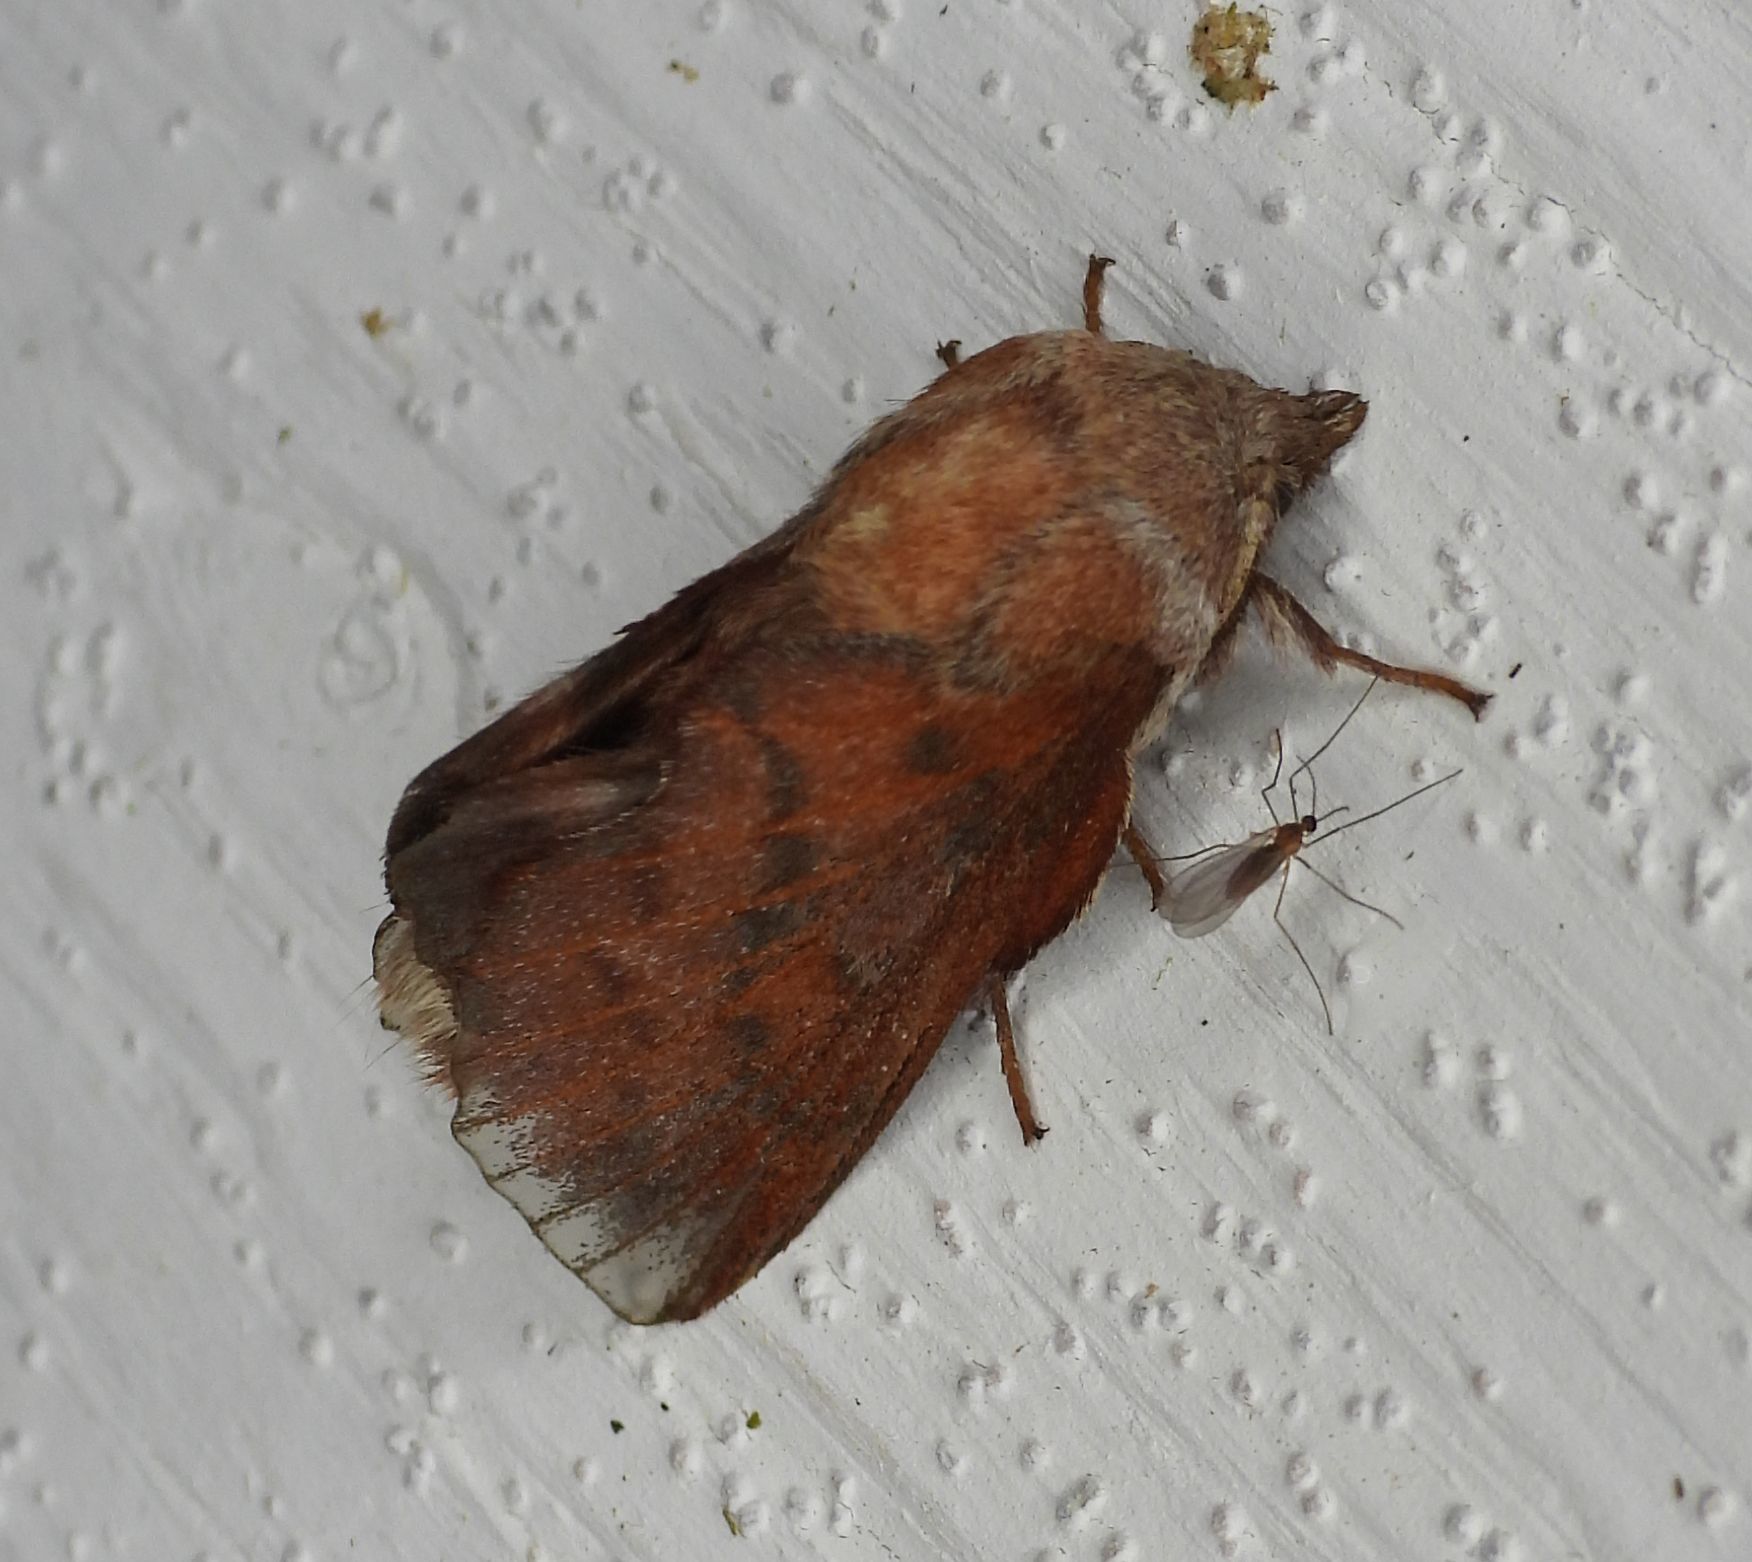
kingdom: Animalia
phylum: Arthropoda
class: Insecta
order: Lepidoptera
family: Lasiocampidae
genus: Phyllodesma
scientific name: Phyllodesma americana
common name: American lappet moth
